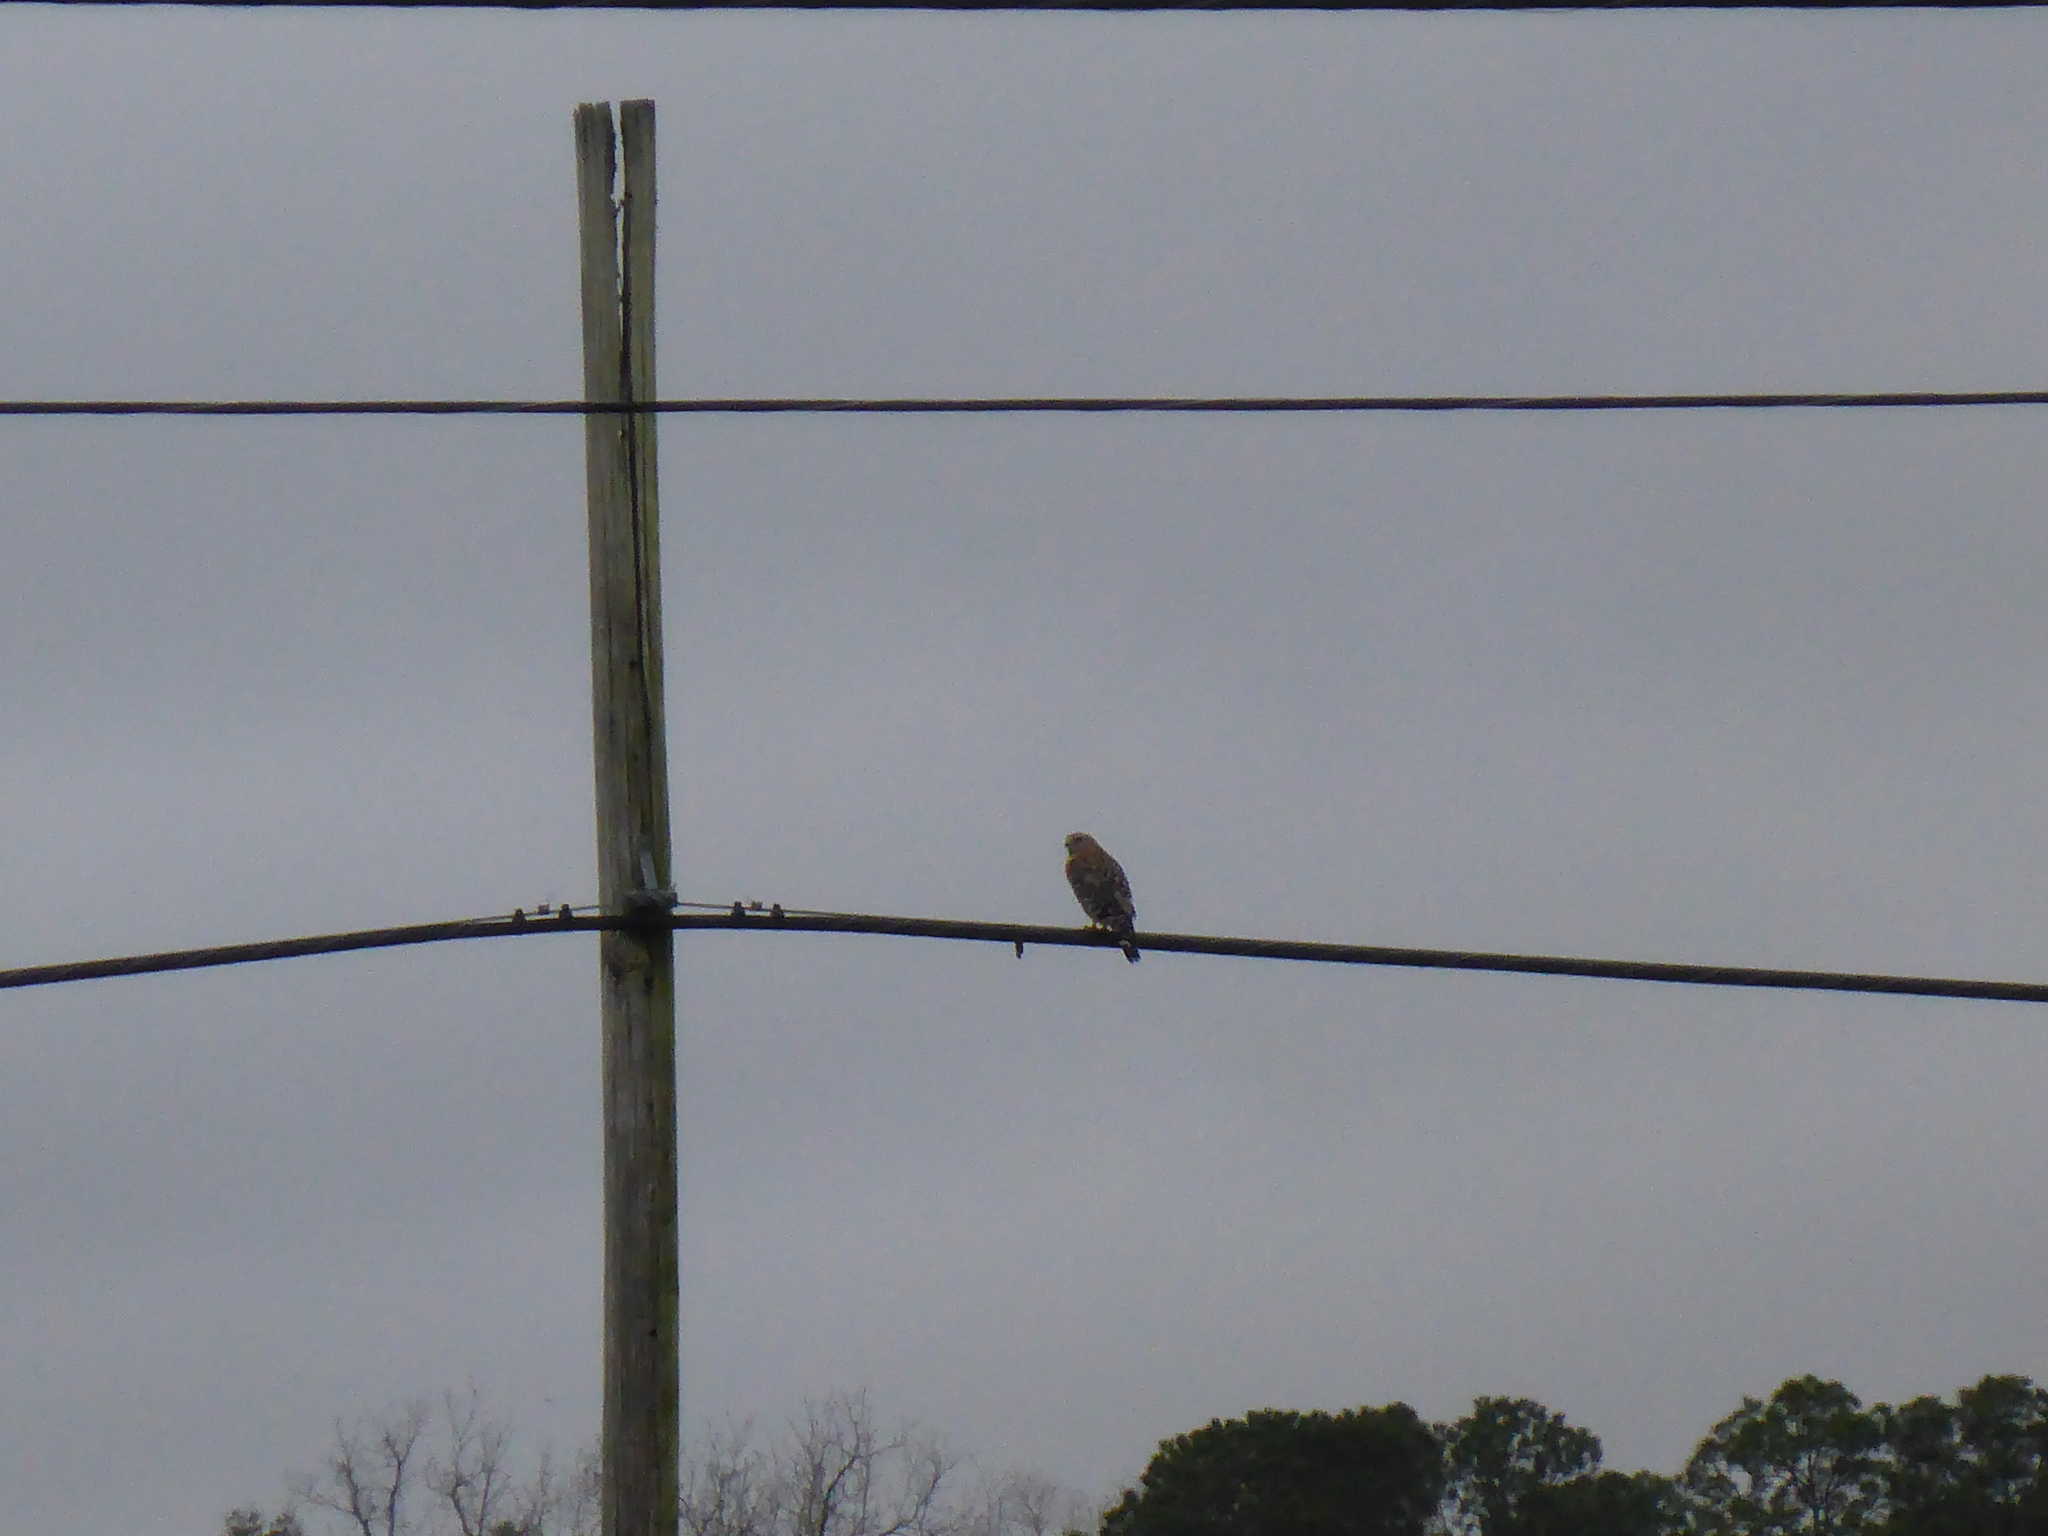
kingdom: Animalia
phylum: Chordata
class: Aves
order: Accipitriformes
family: Accipitridae
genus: Buteo
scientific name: Buteo lineatus
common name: Red-shouldered hawk
